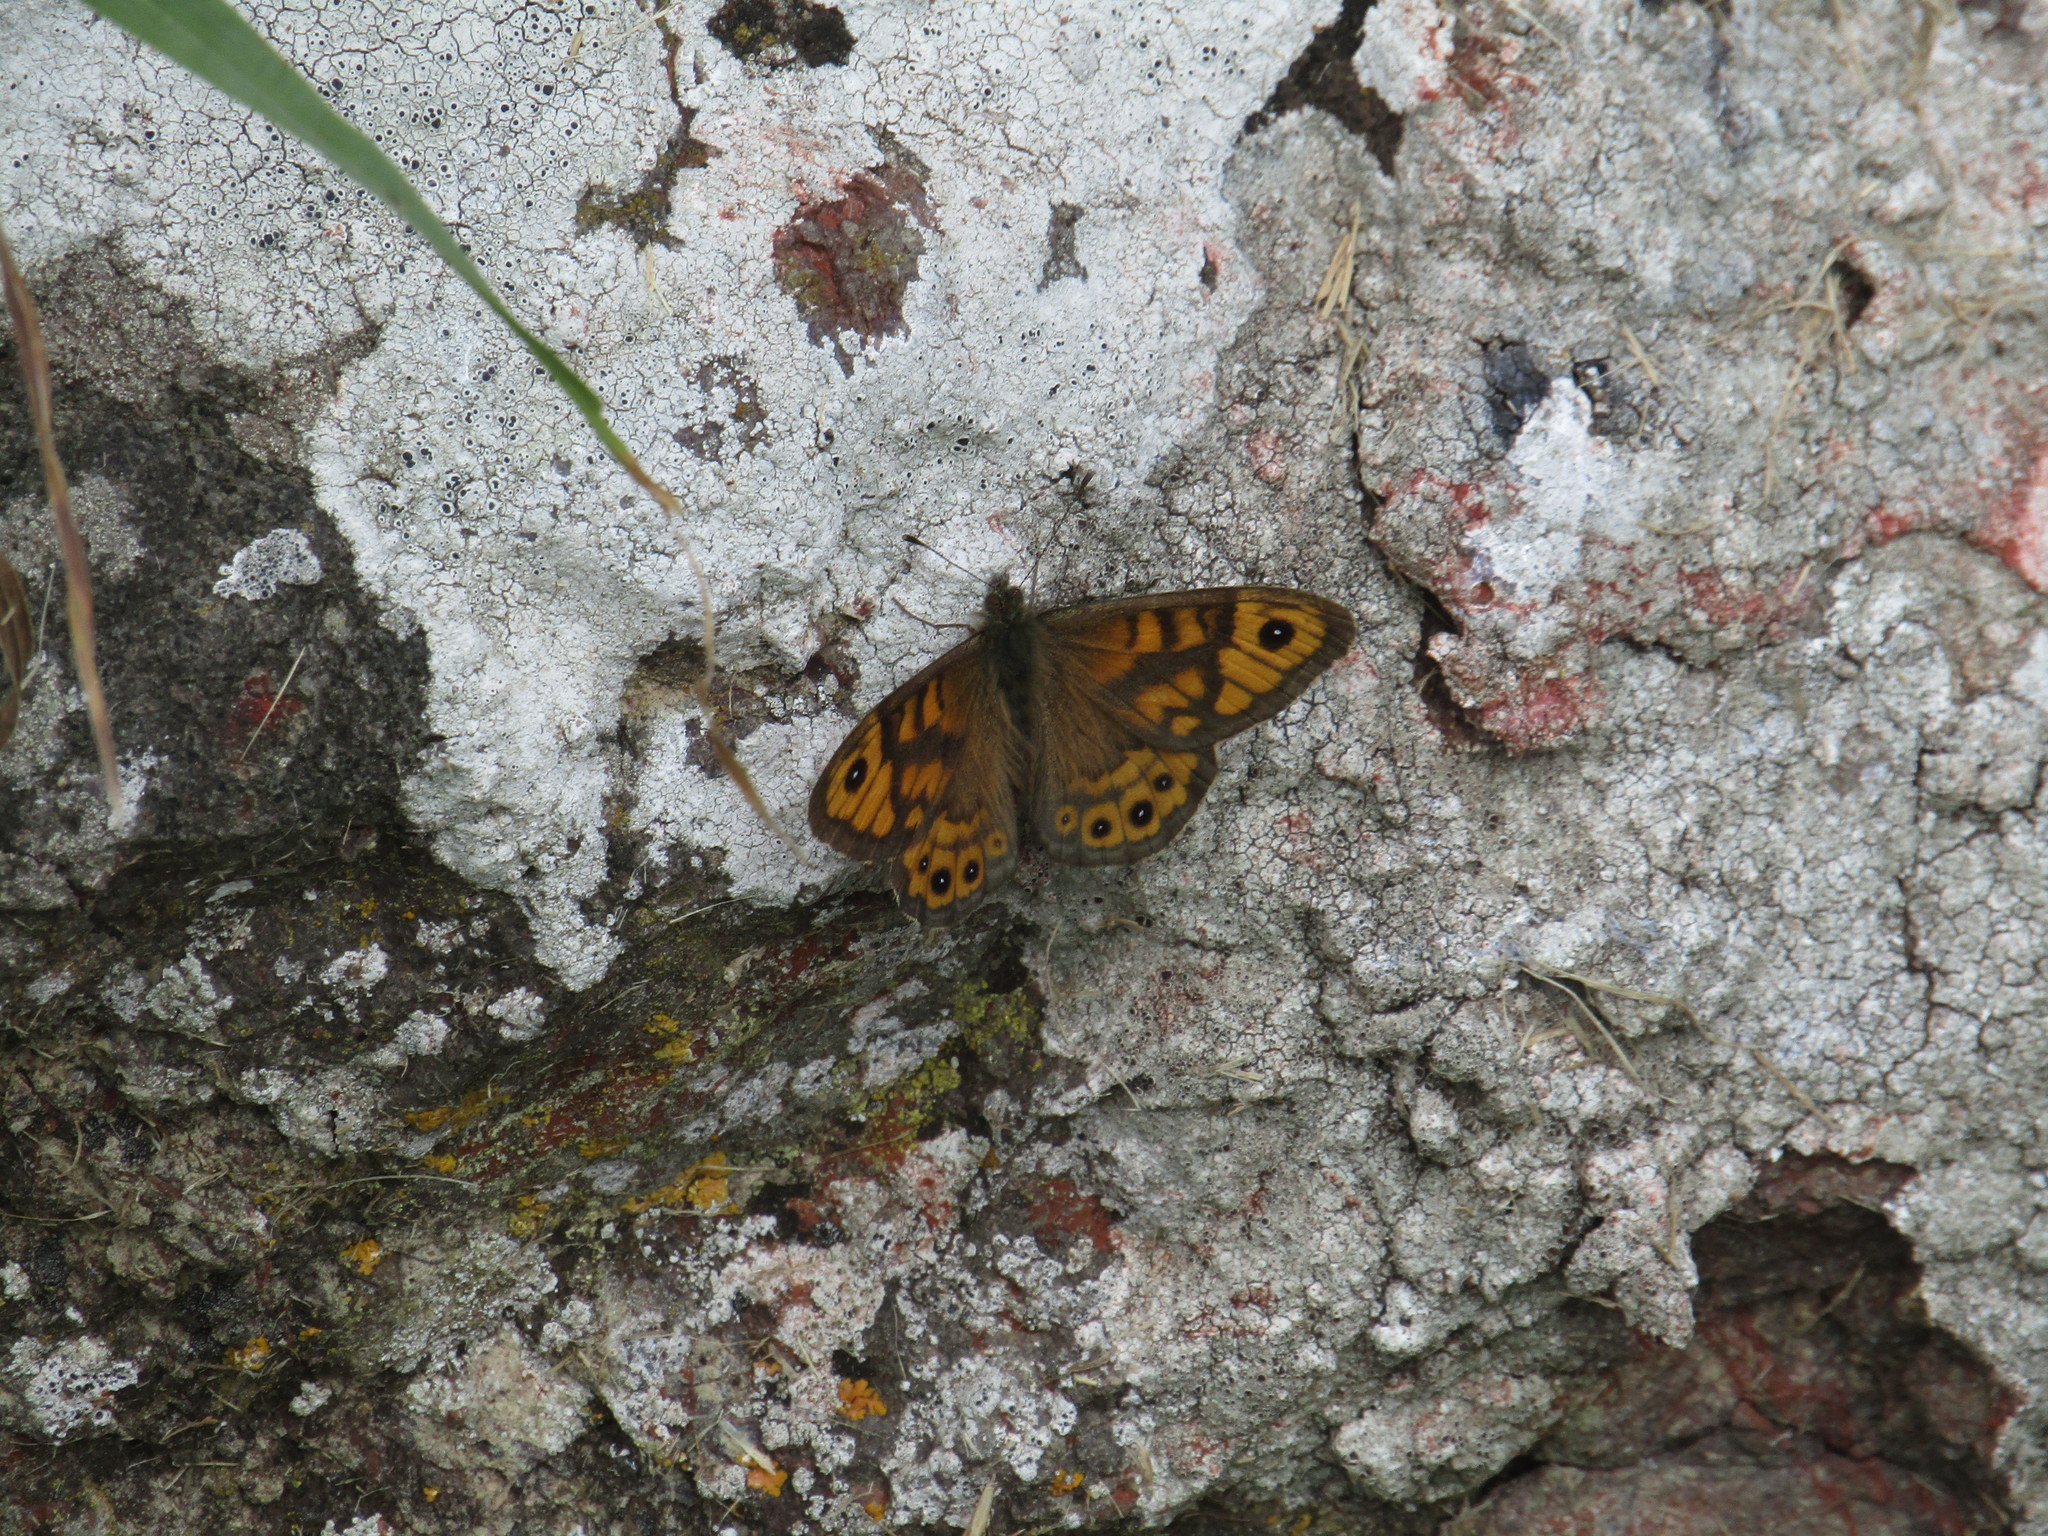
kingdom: Animalia
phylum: Arthropoda
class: Insecta
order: Lepidoptera
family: Nymphalidae
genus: Pararge
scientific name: Pararge Lasiommata megera
